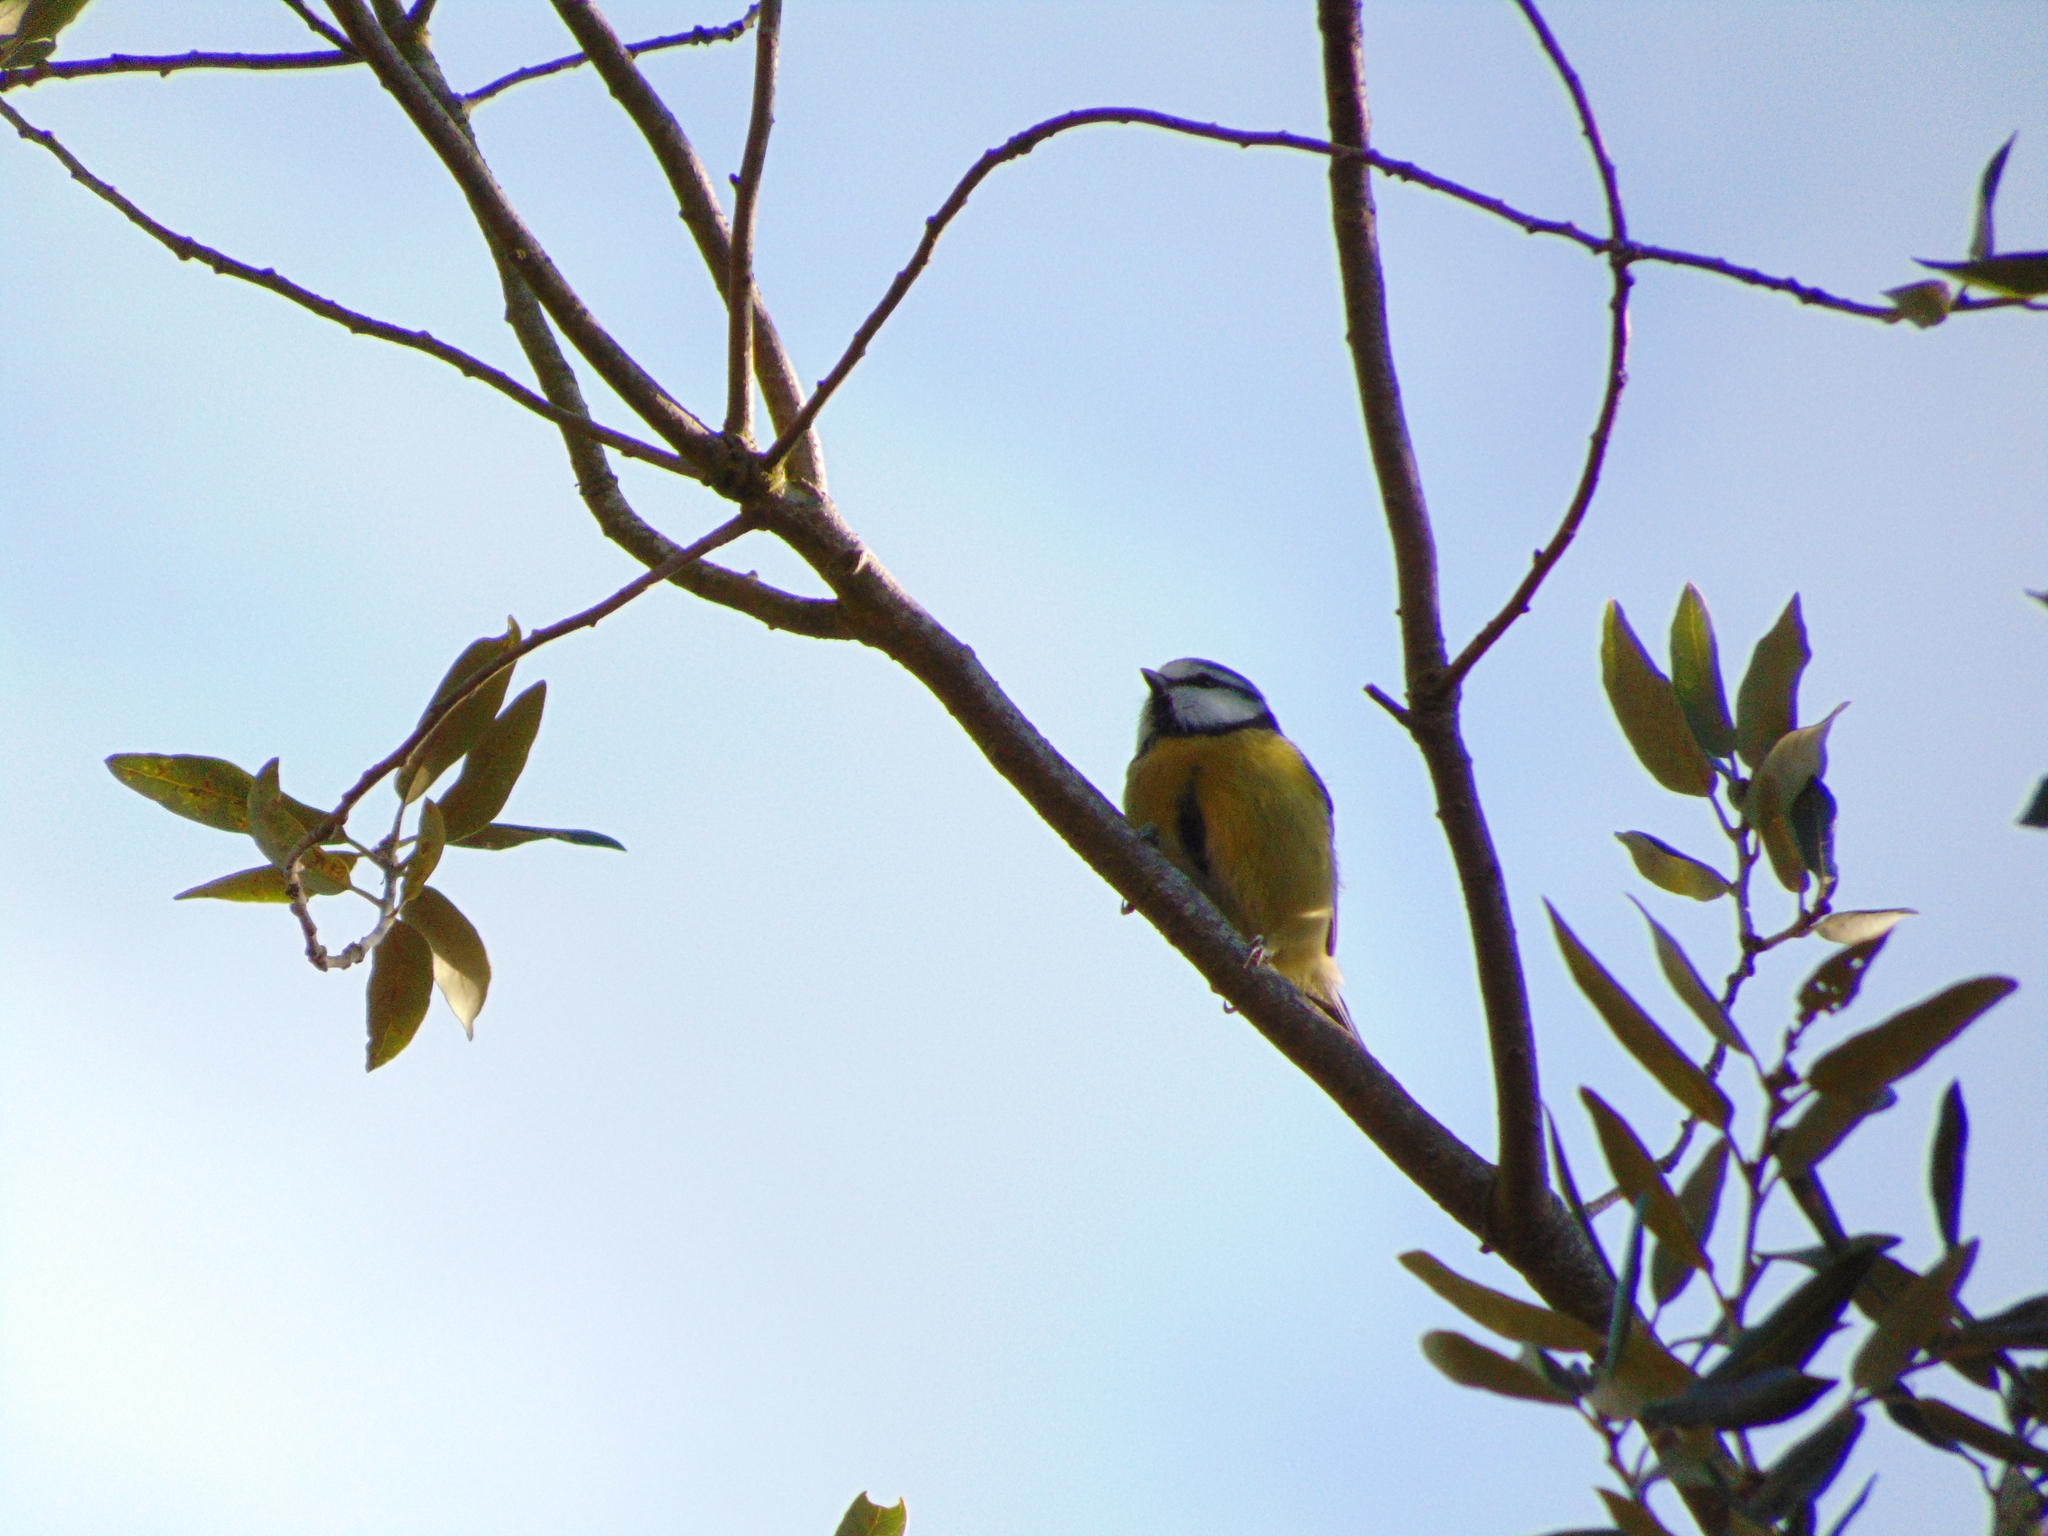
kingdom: Animalia
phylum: Chordata
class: Aves
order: Passeriformes
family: Paridae
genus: Cyanistes
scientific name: Cyanistes caeruleus
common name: Eurasian blue tit
